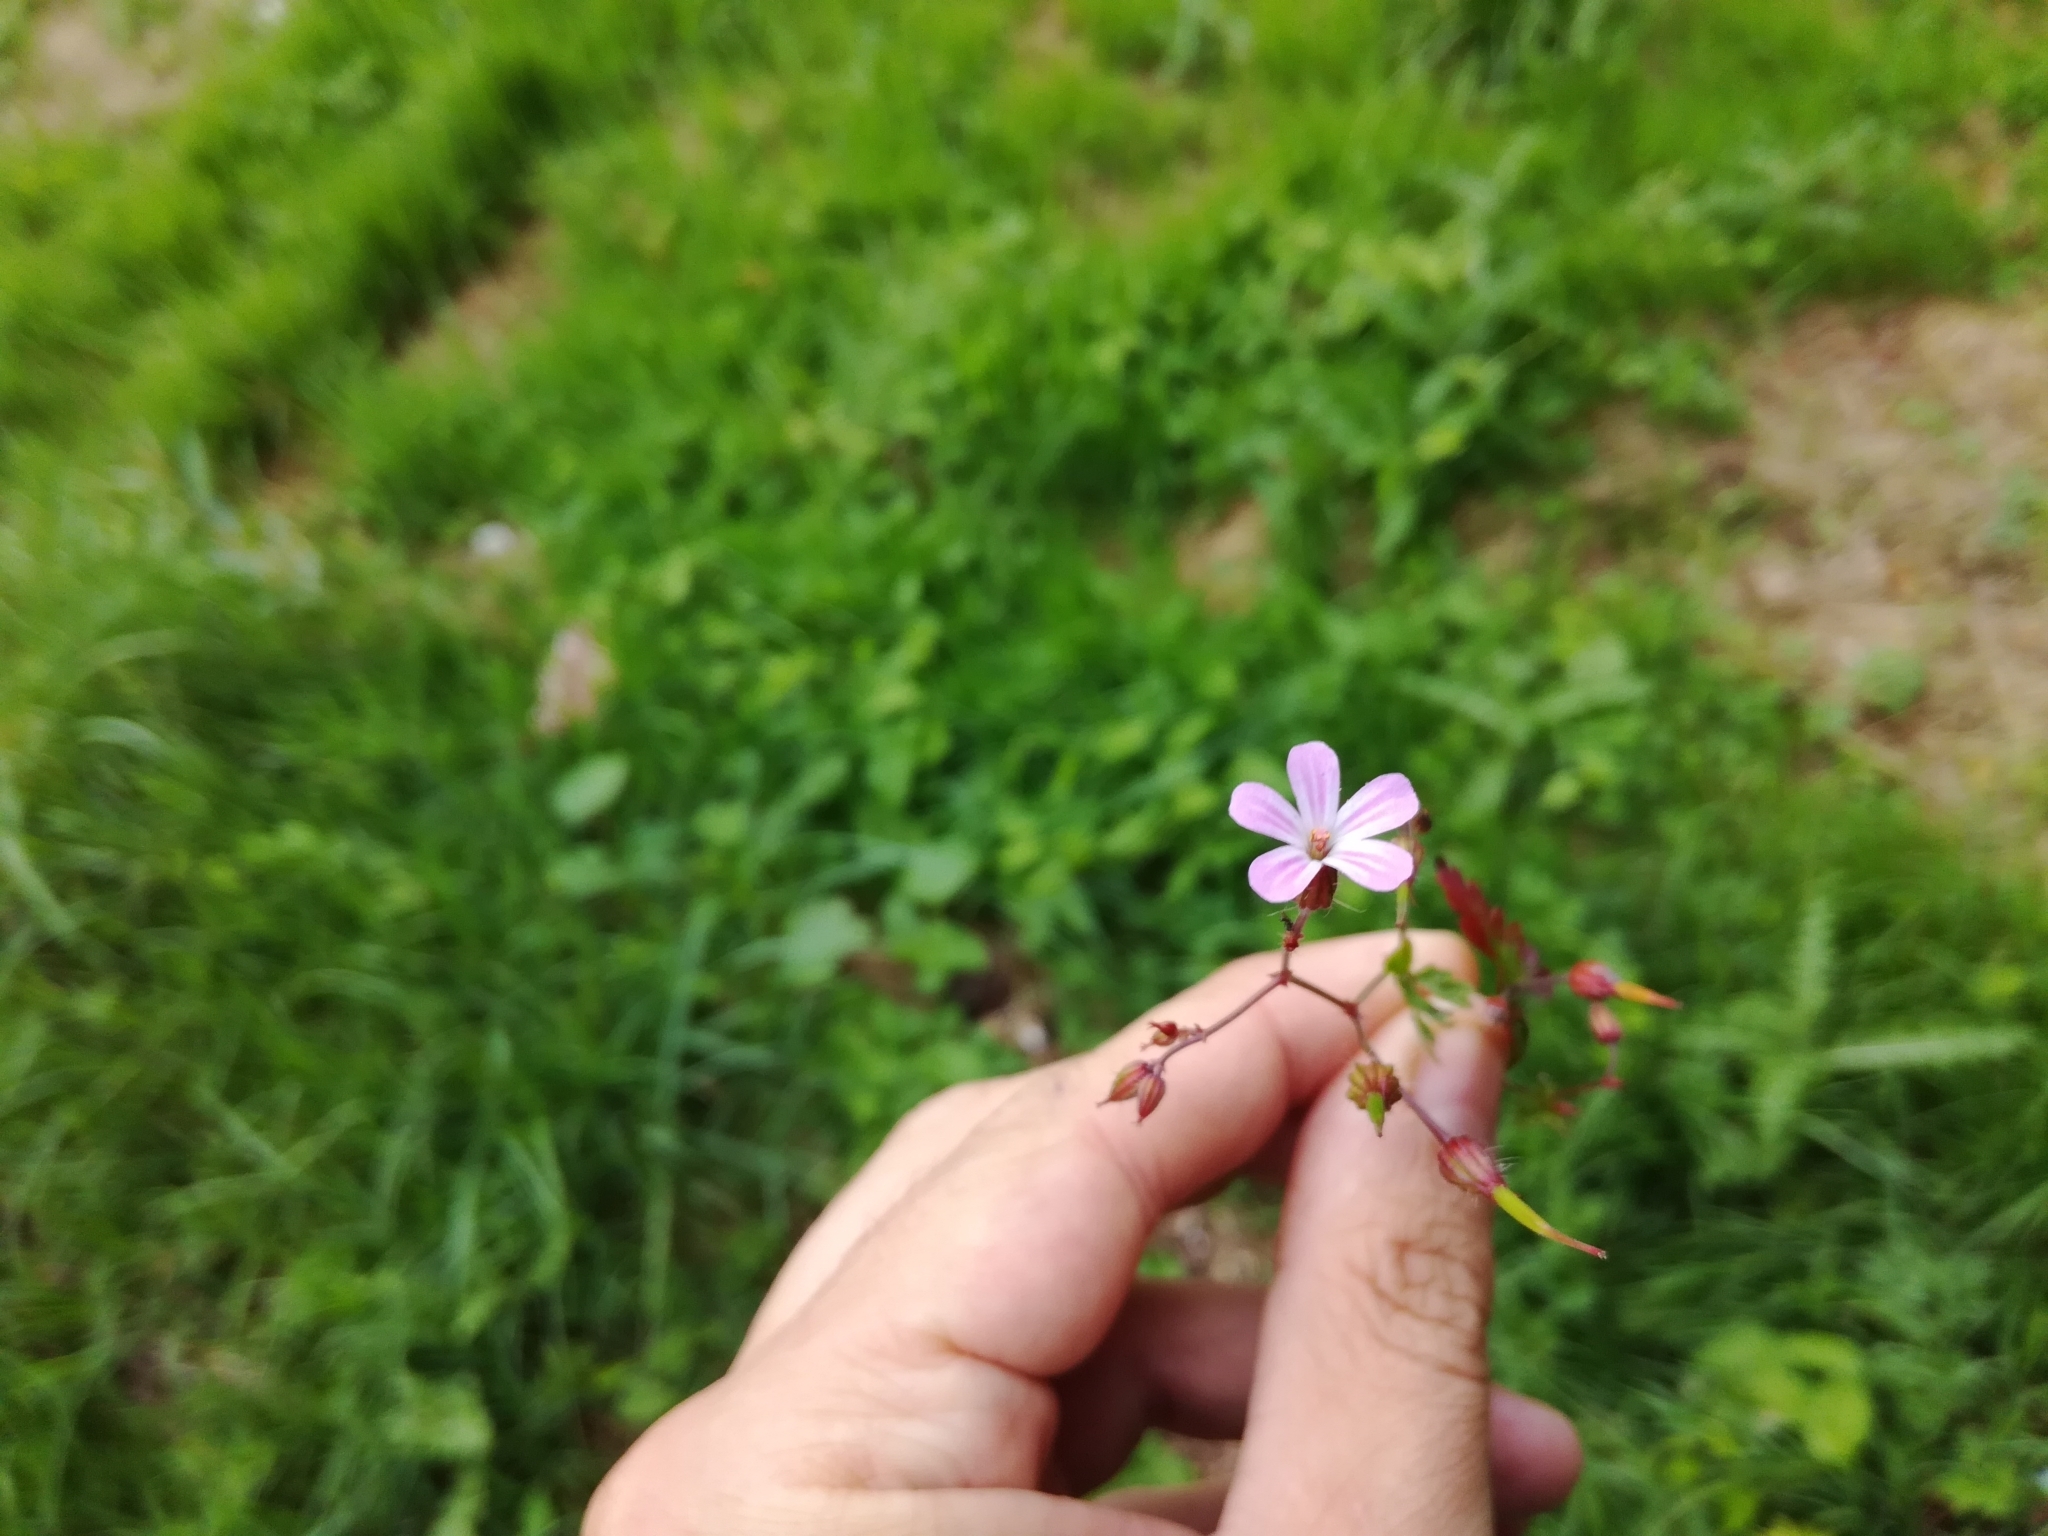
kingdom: Plantae
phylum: Tracheophyta
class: Magnoliopsida
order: Geraniales
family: Geraniaceae
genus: Geranium
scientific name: Geranium robertianum
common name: Herb-robert
